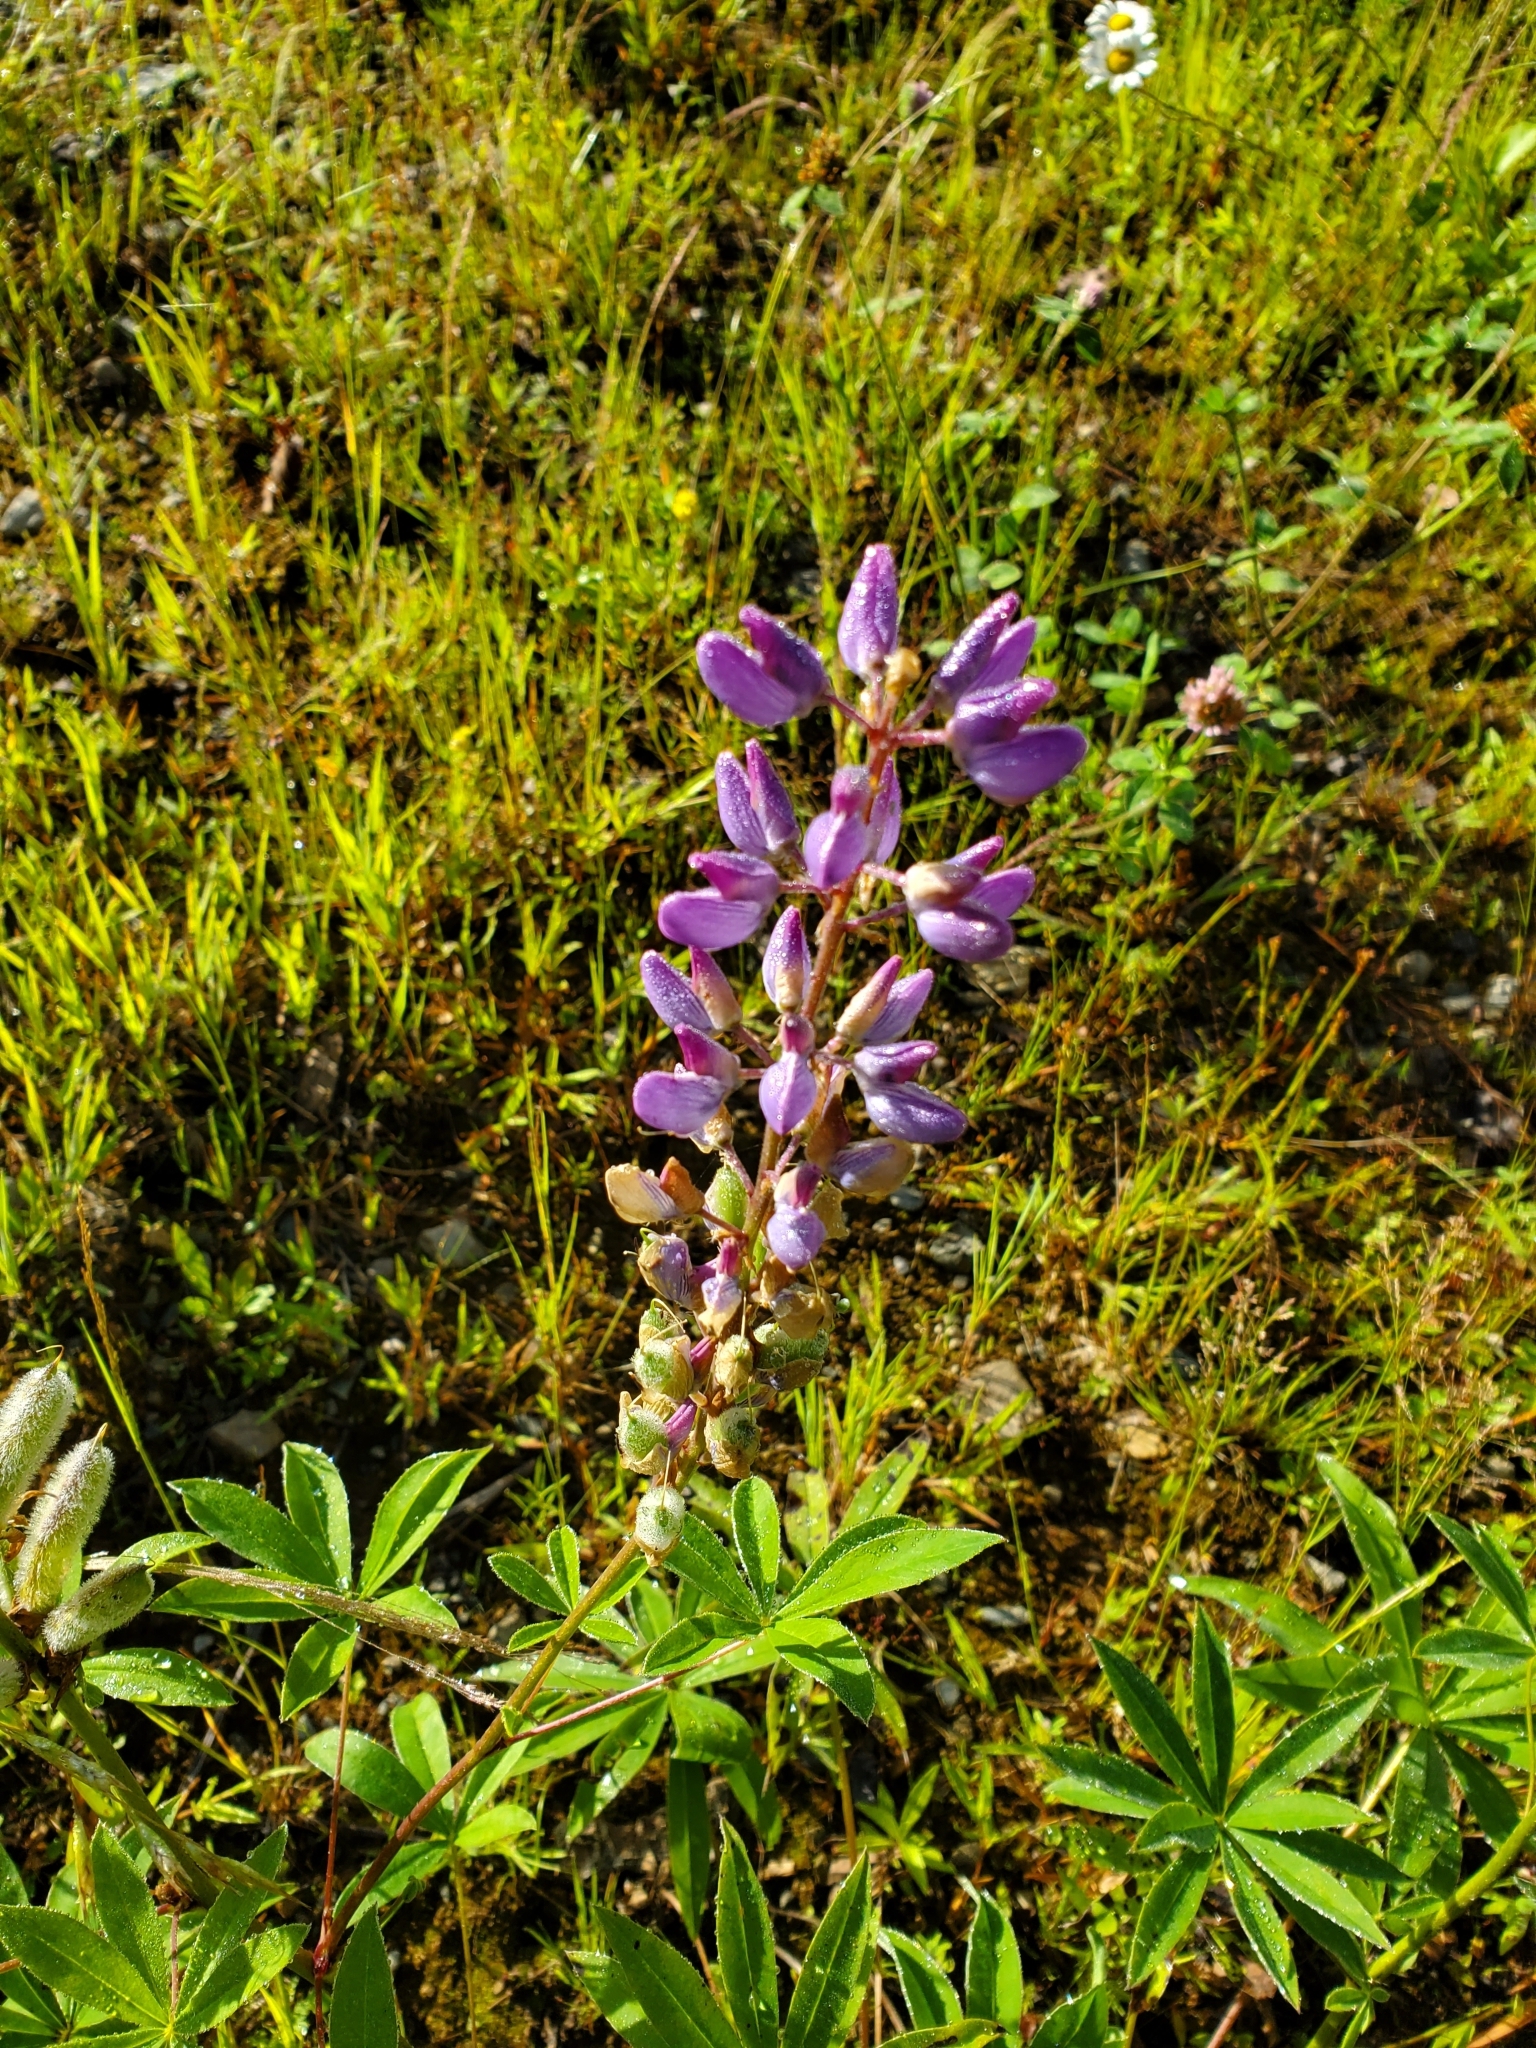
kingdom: Plantae
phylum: Tracheophyta
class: Magnoliopsida
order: Fabales
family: Fabaceae
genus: Lupinus
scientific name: Lupinus polyphyllus
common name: Garden lupin
